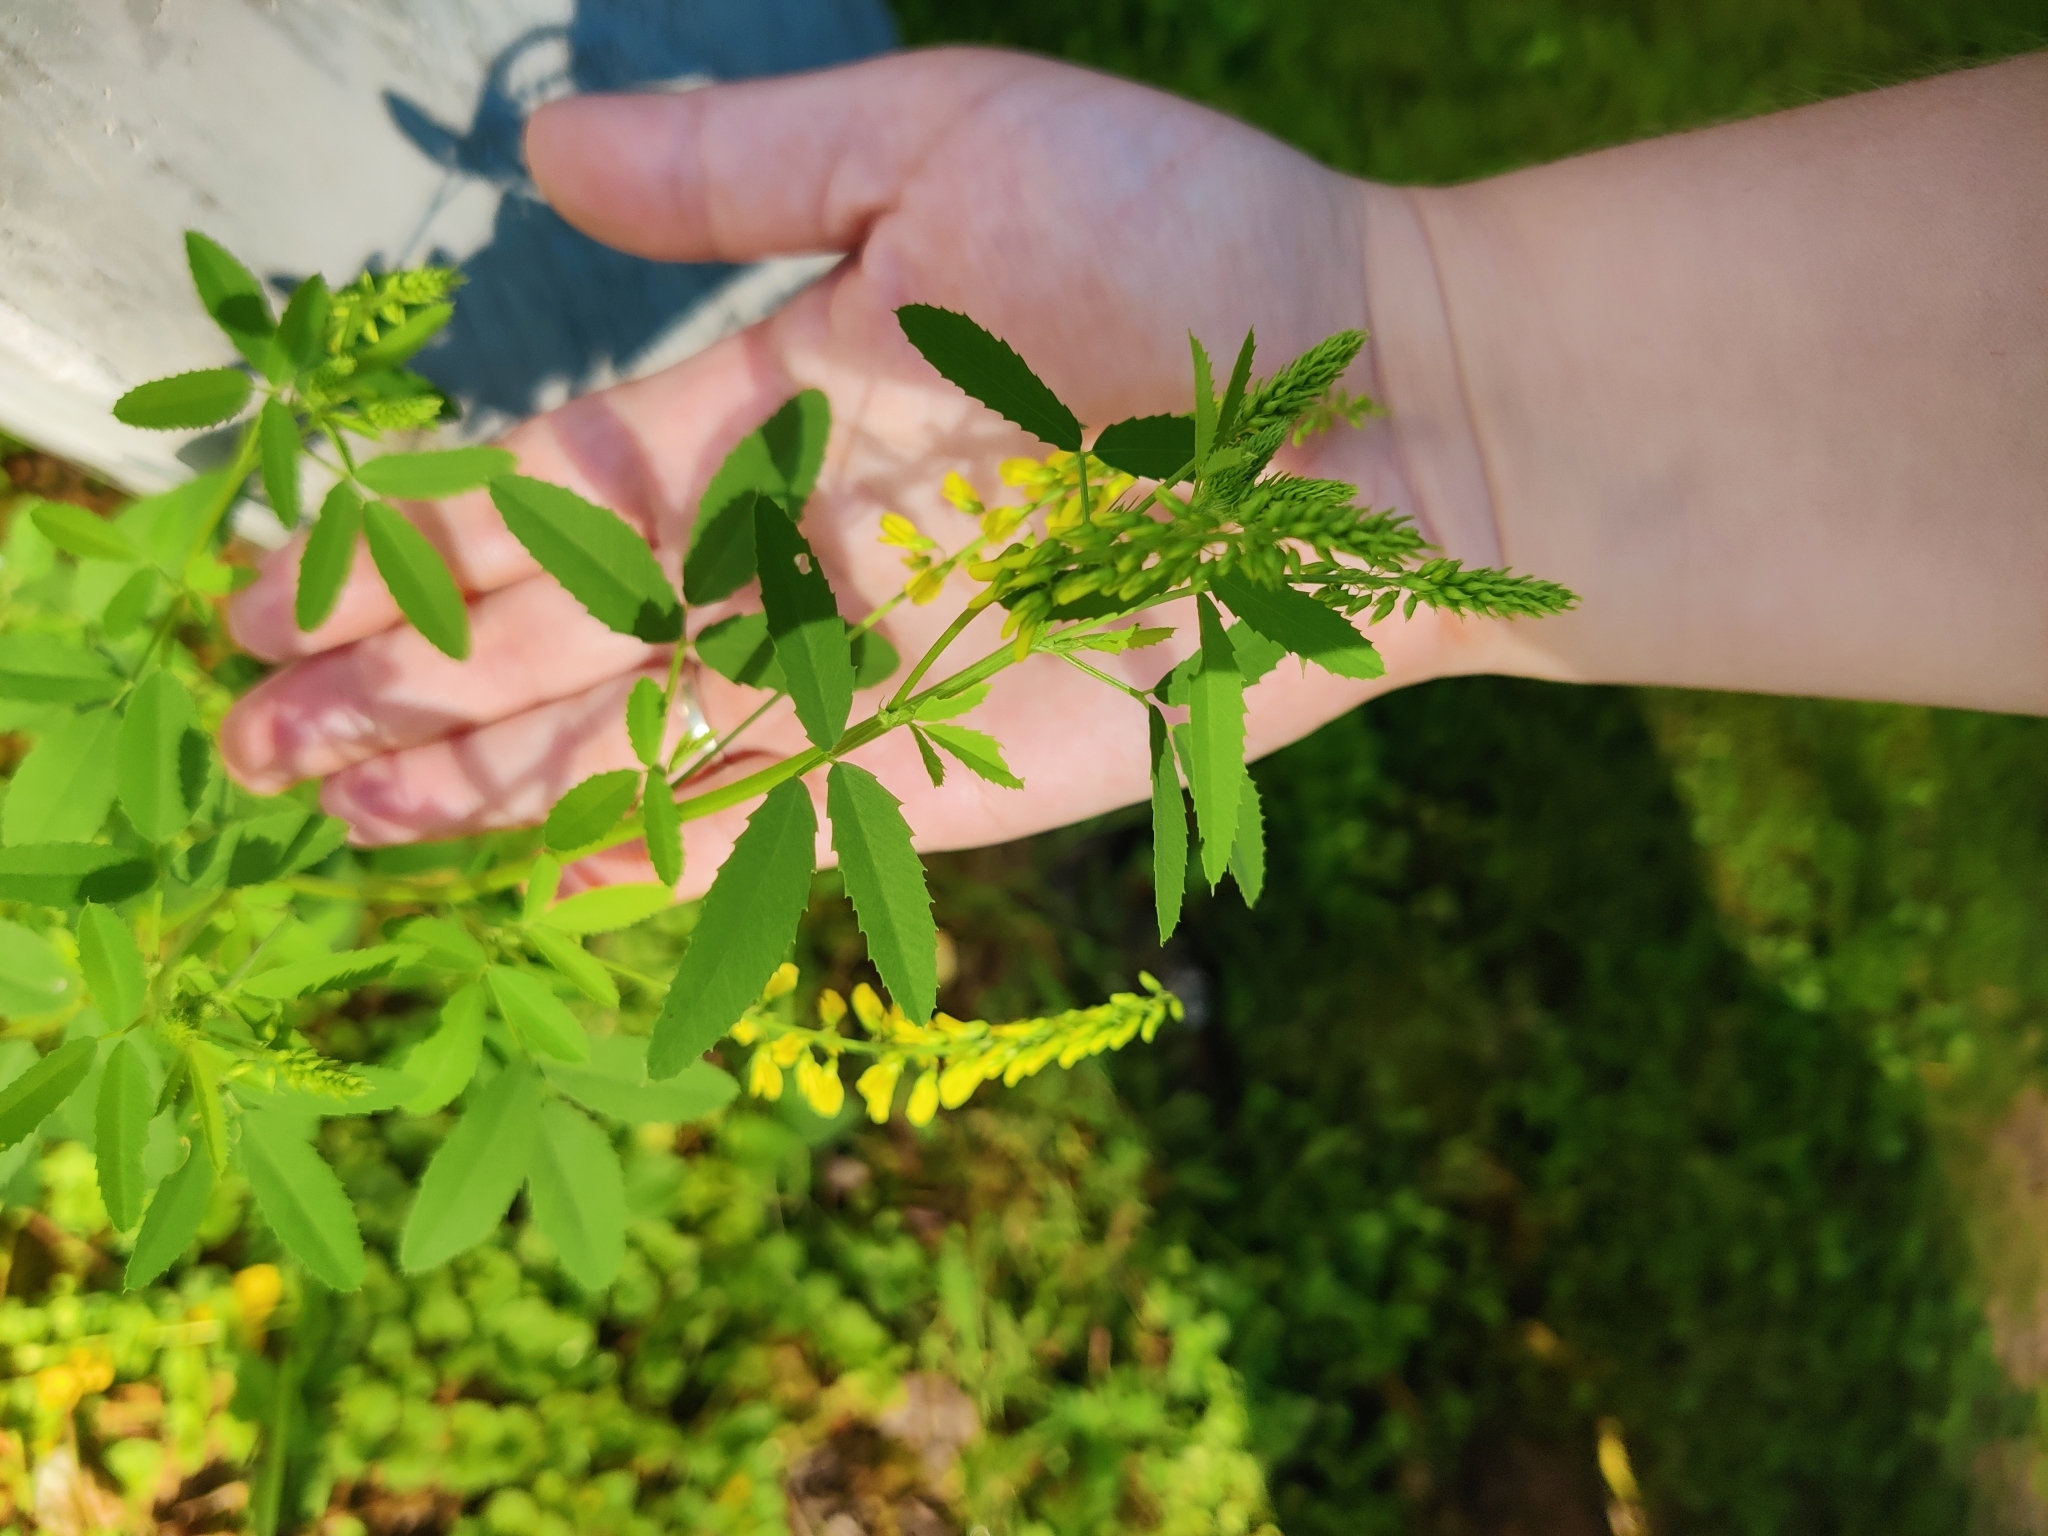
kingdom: Plantae
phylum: Tracheophyta
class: Magnoliopsida
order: Fabales
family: Fabaceae
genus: Melilotus
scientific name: Melilotus officinalis
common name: Sweetclover
